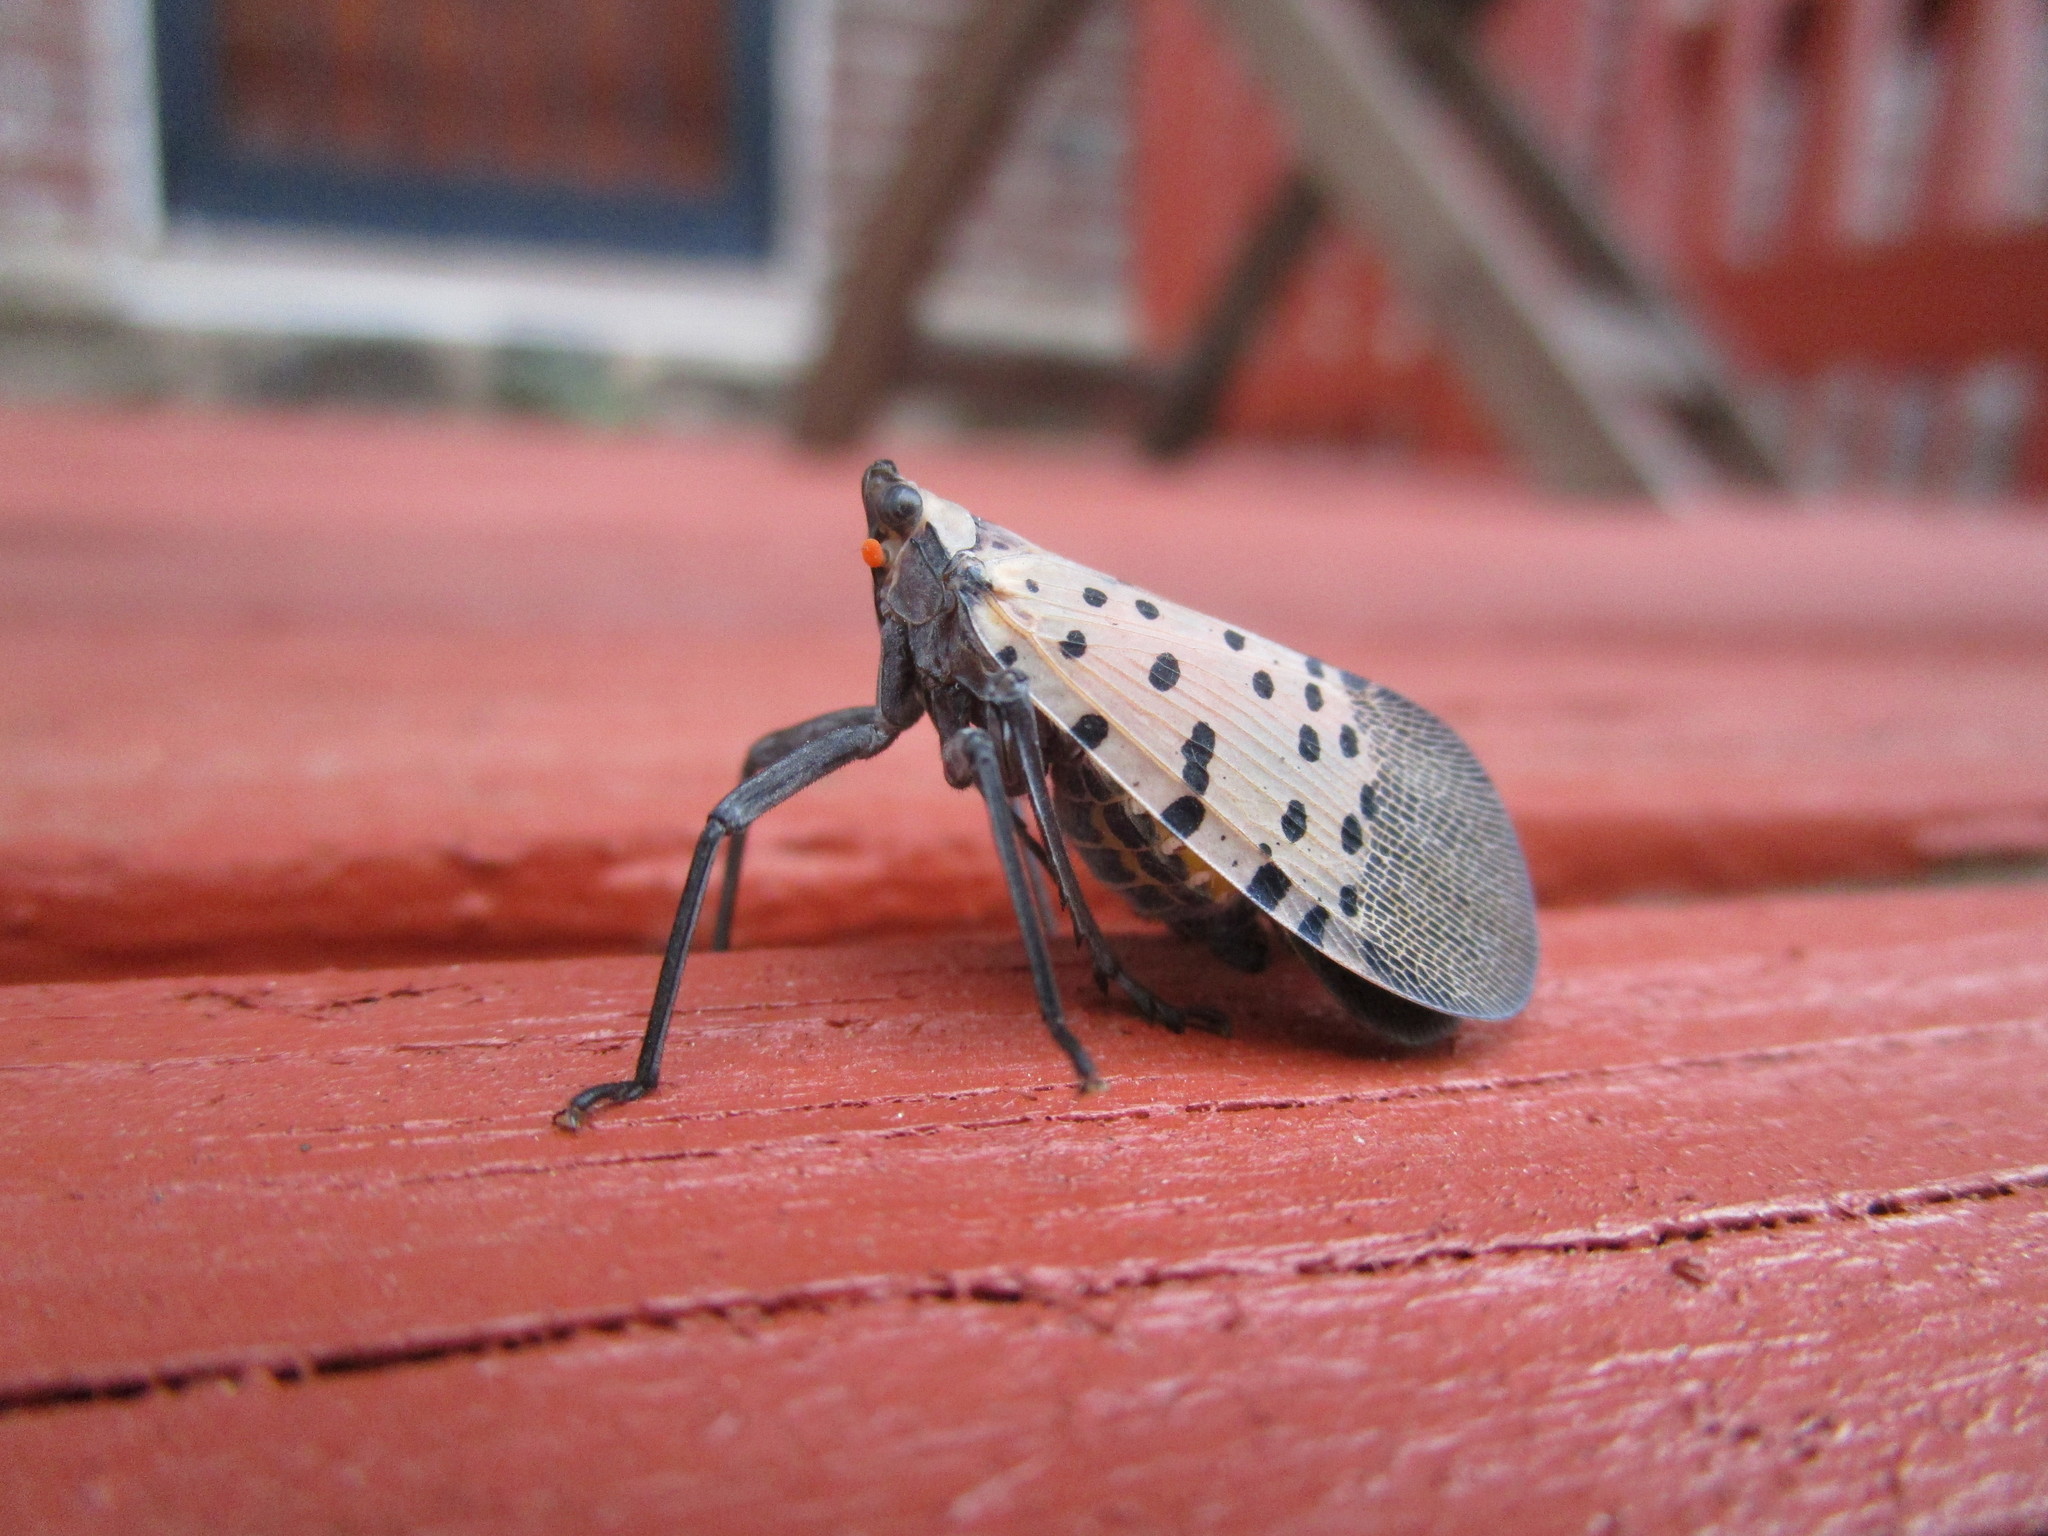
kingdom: Animalia
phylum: Arthropoda
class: Insecta
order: Hemiptera
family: Fulgoridae
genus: Lycorma
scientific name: Lycorma delicatula
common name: Spotted lanternfly
